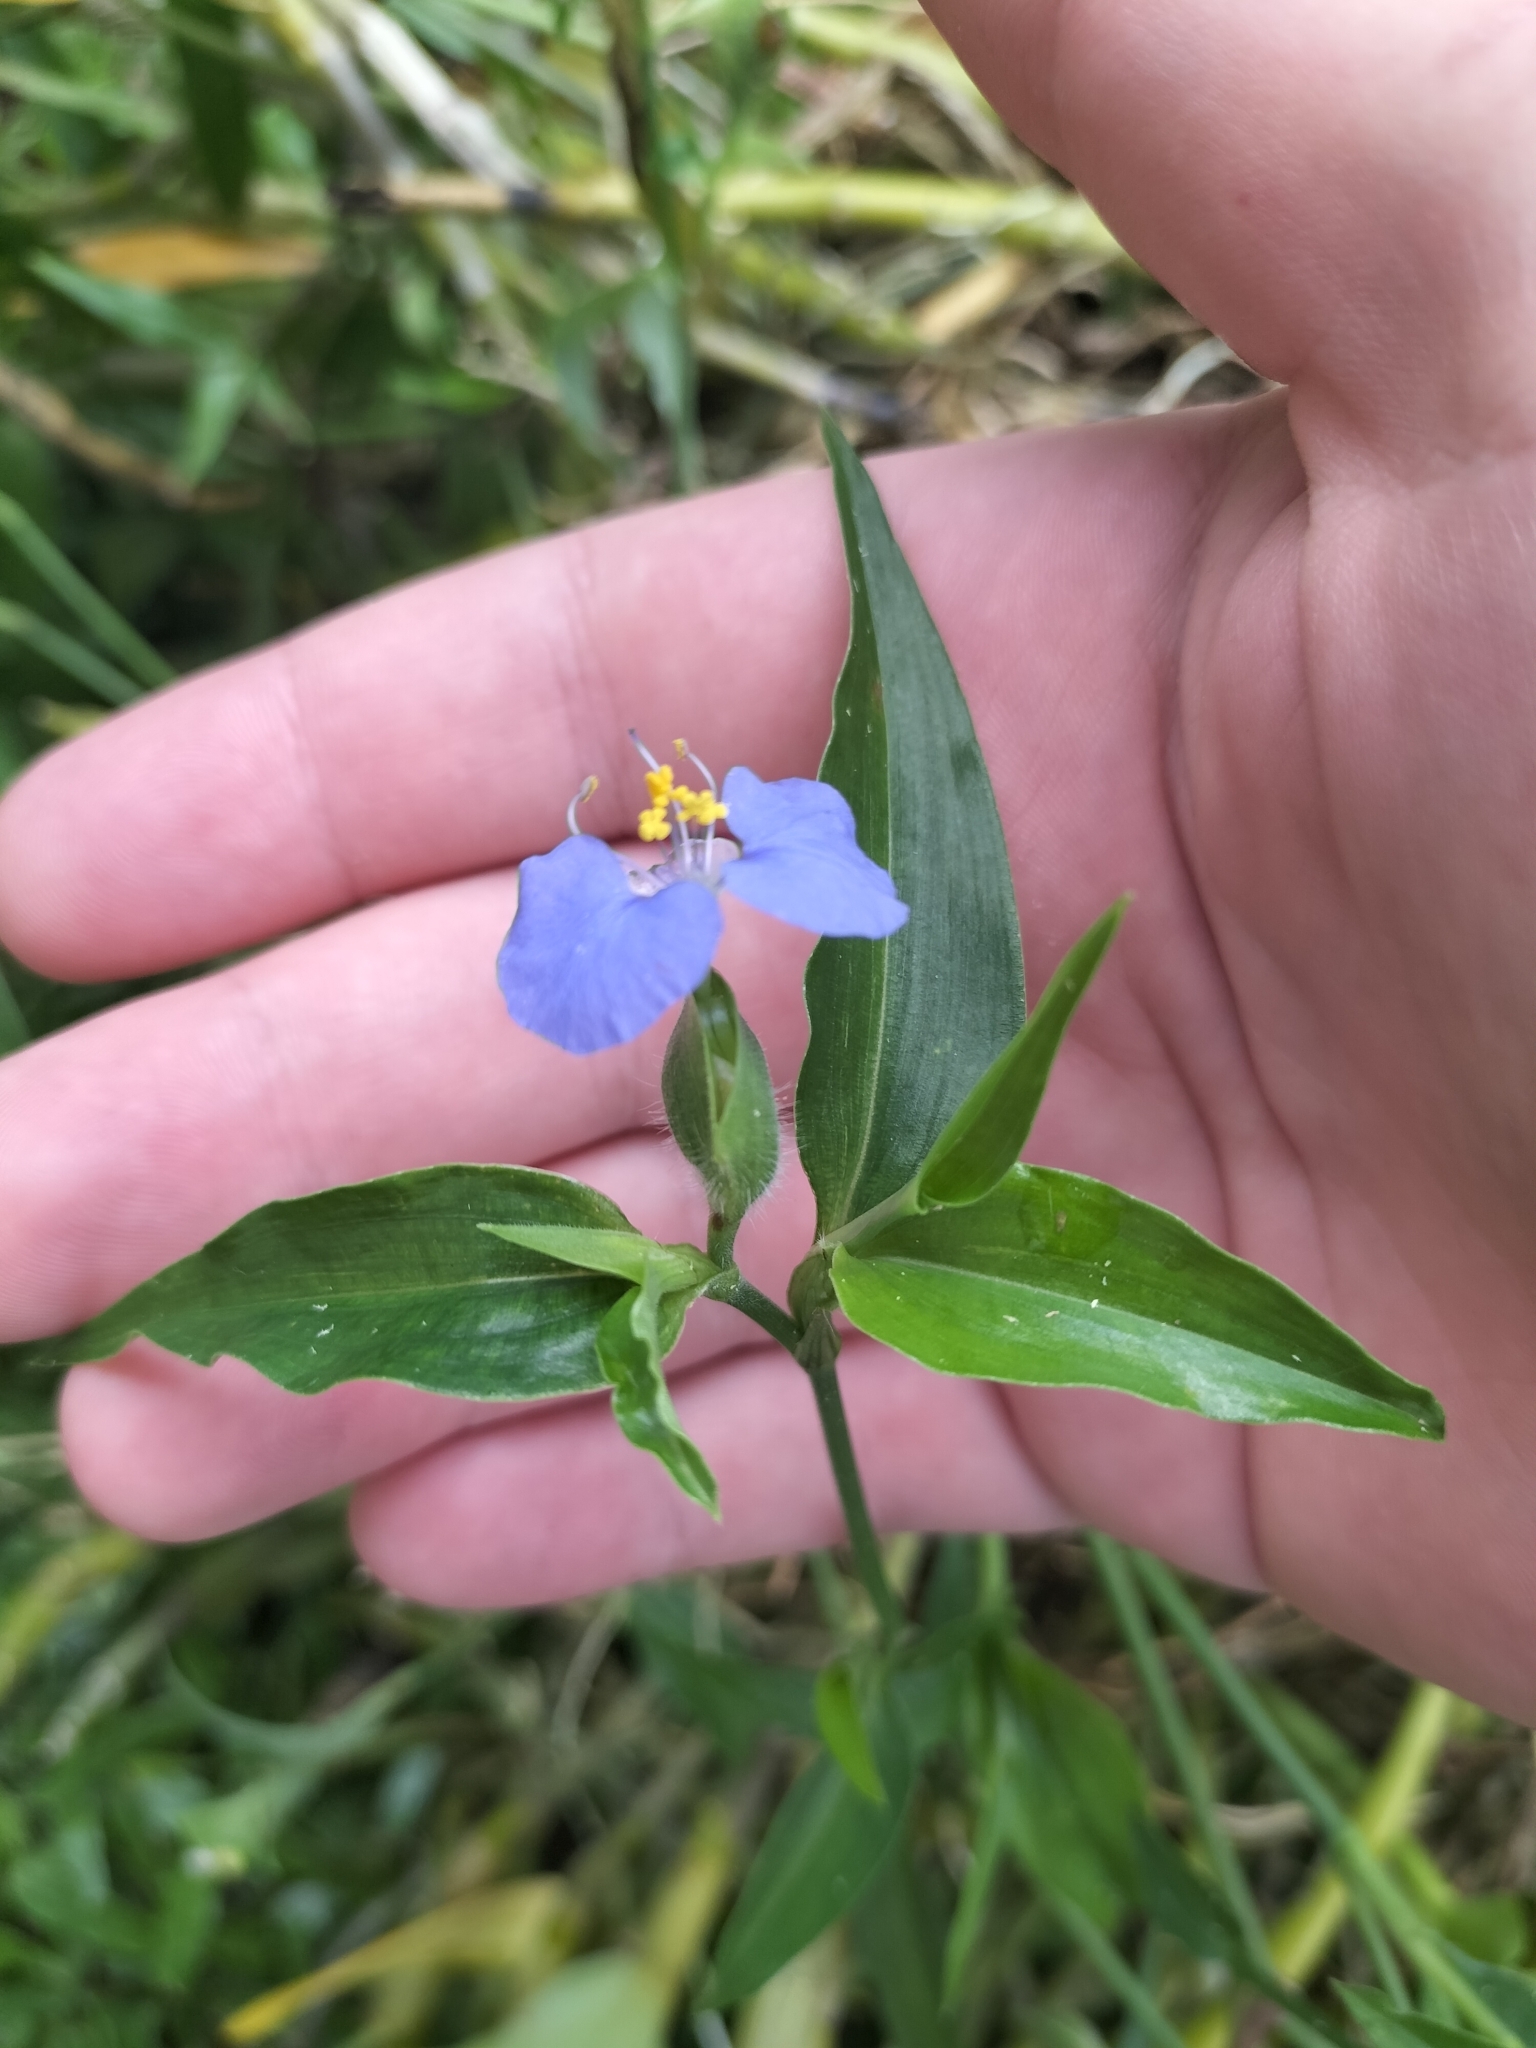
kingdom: Plantae
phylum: Tracheophyta
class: Liliopsida
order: Commelinales
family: Commelinaceae
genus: Commelina
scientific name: Commelina ensifolia
